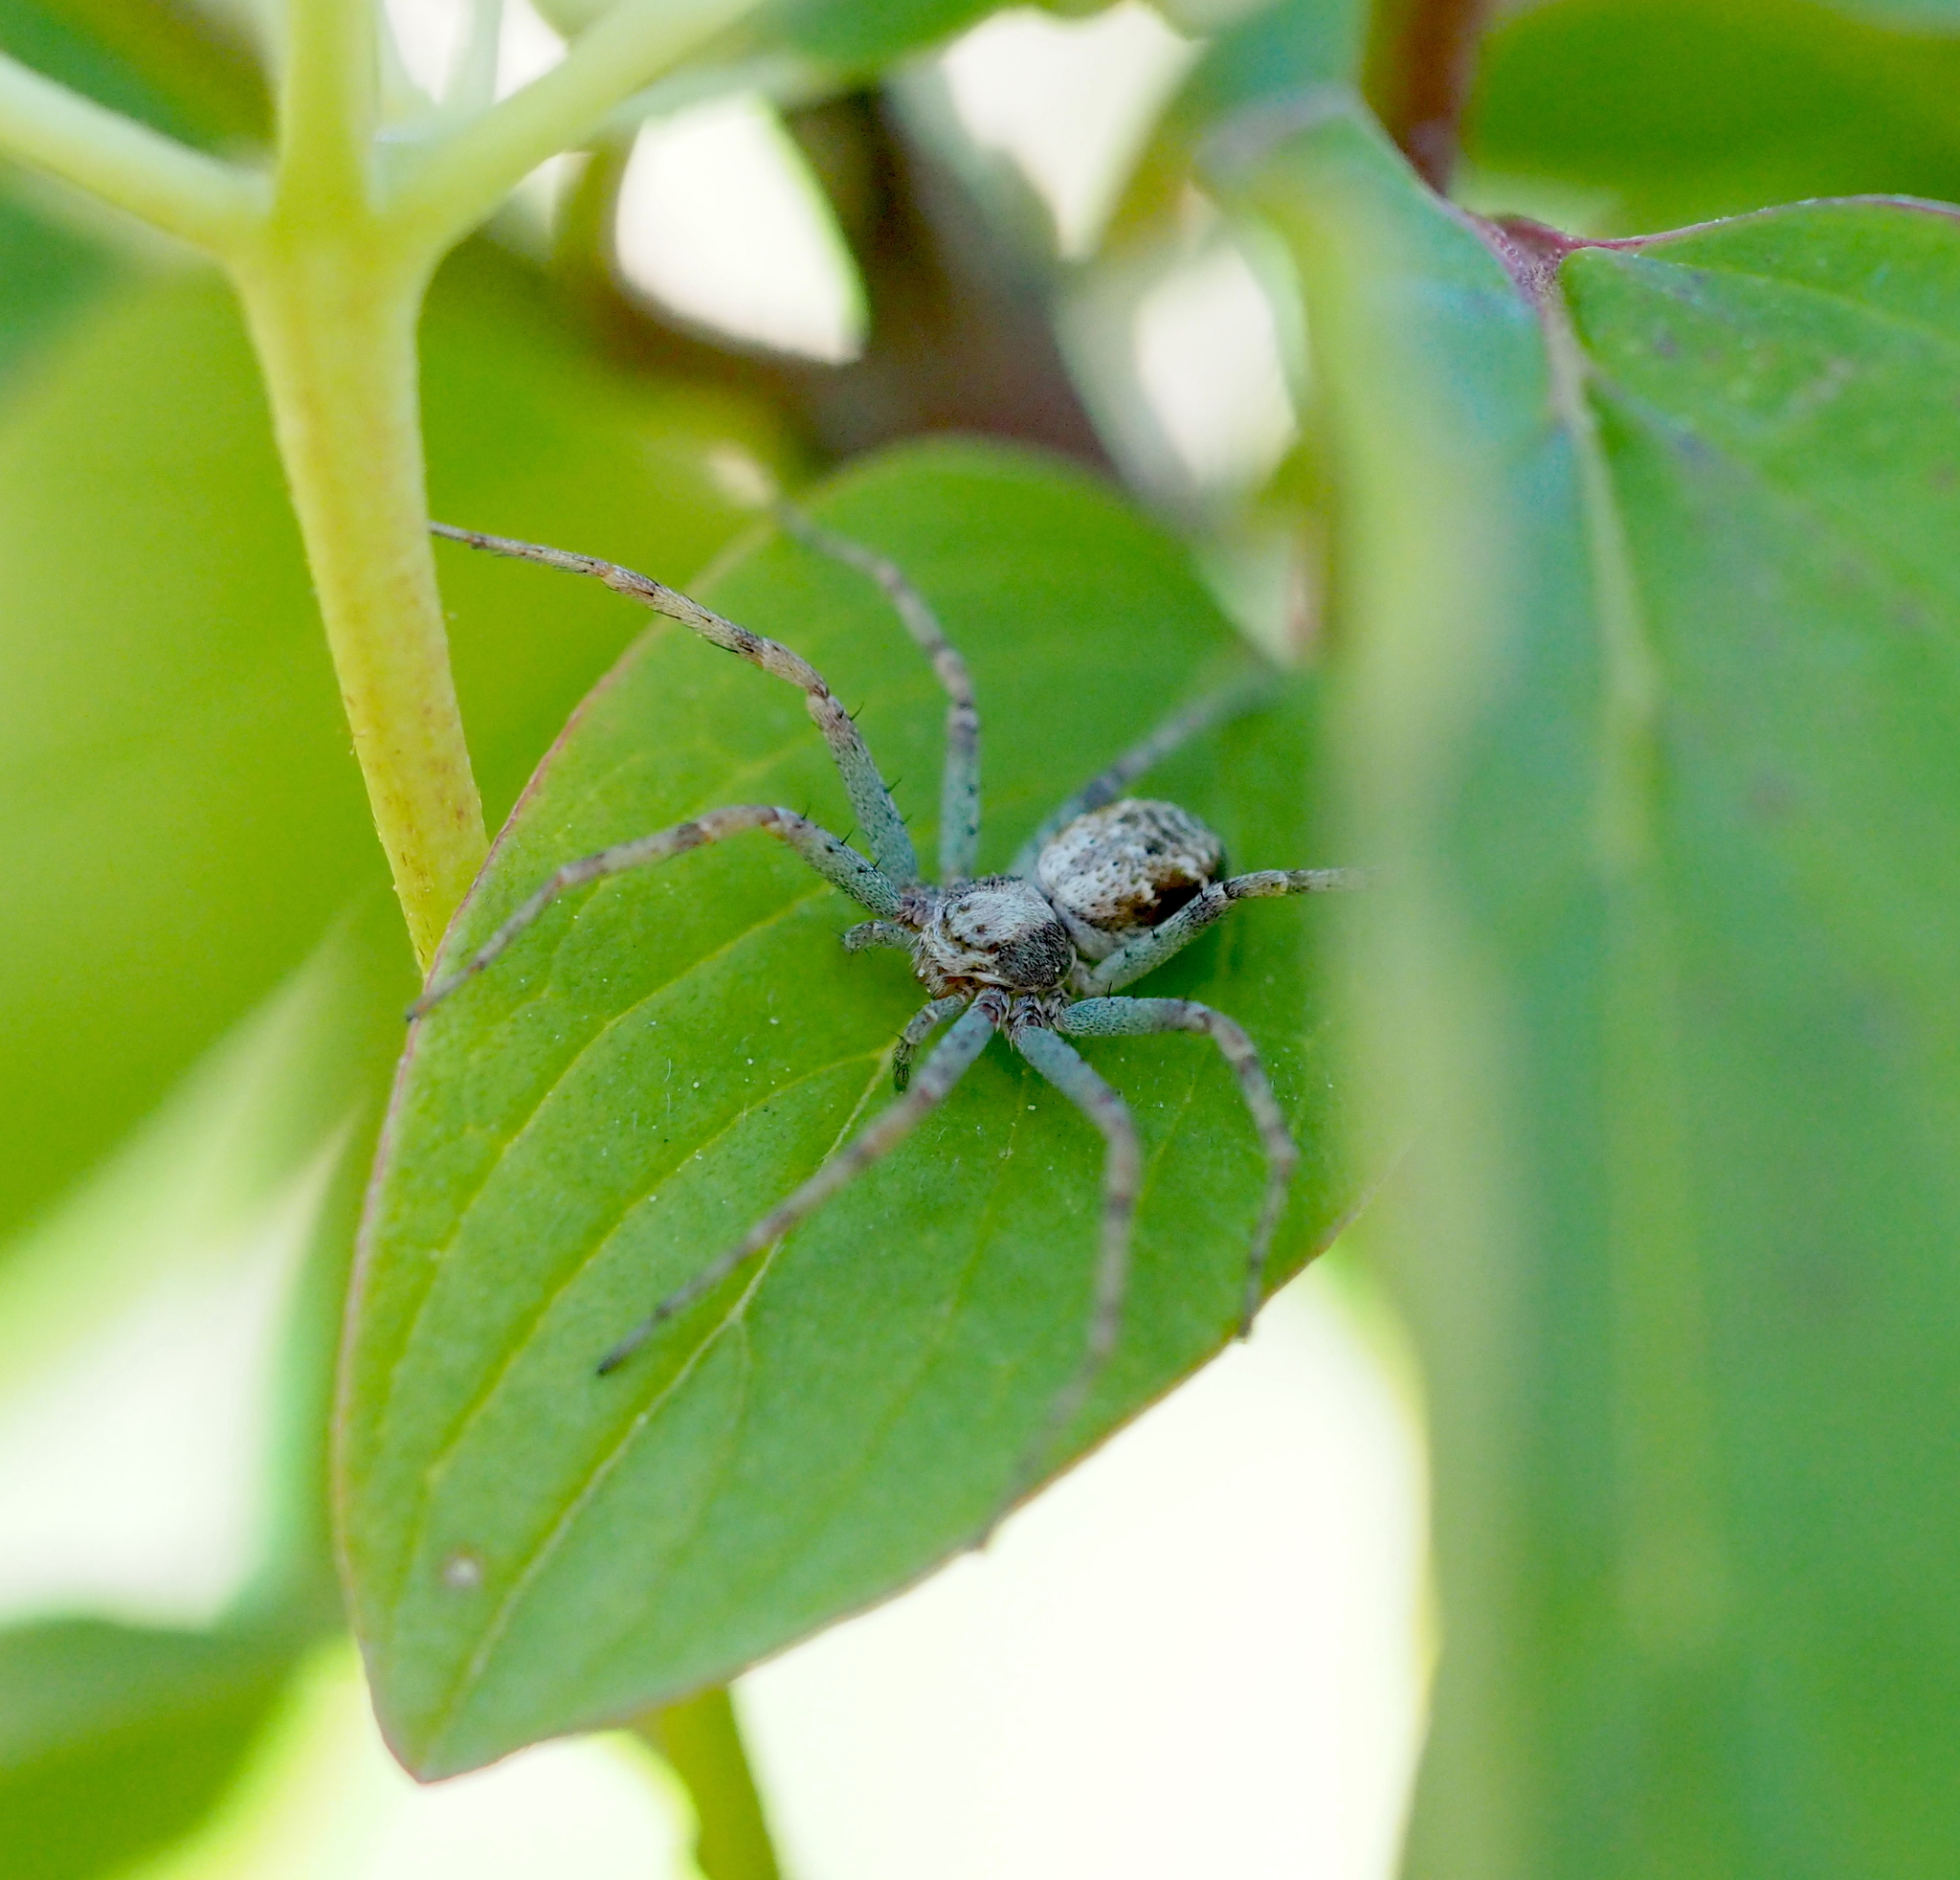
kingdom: Animalia
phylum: Arthropoda
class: Arachnida
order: Araneae
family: Philodromidae
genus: Philodromus
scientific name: Philodromus dispar
